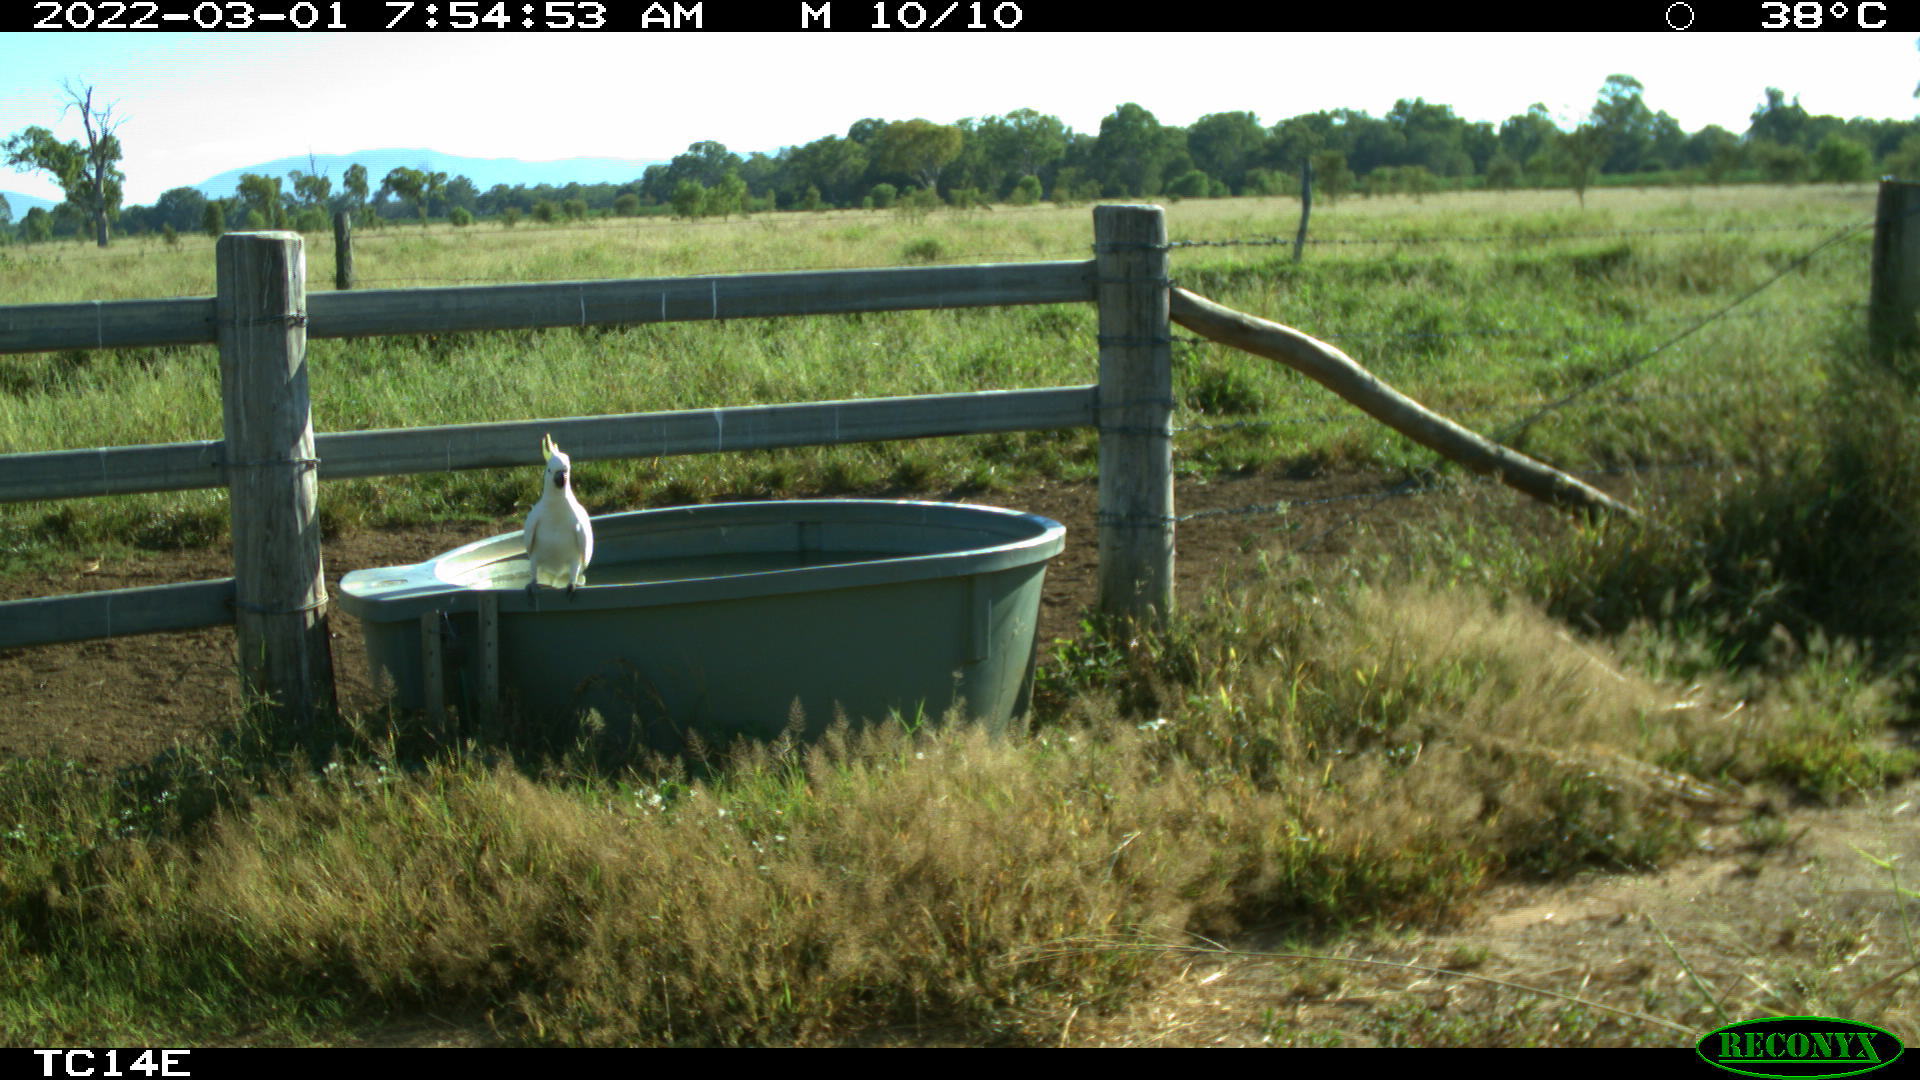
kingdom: Animalia
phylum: Chordata
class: Aves
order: Psittaciformes
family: Psittacidae
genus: Cacatua
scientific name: Cacatua galerita
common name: Sulphur-crested cockatoo
